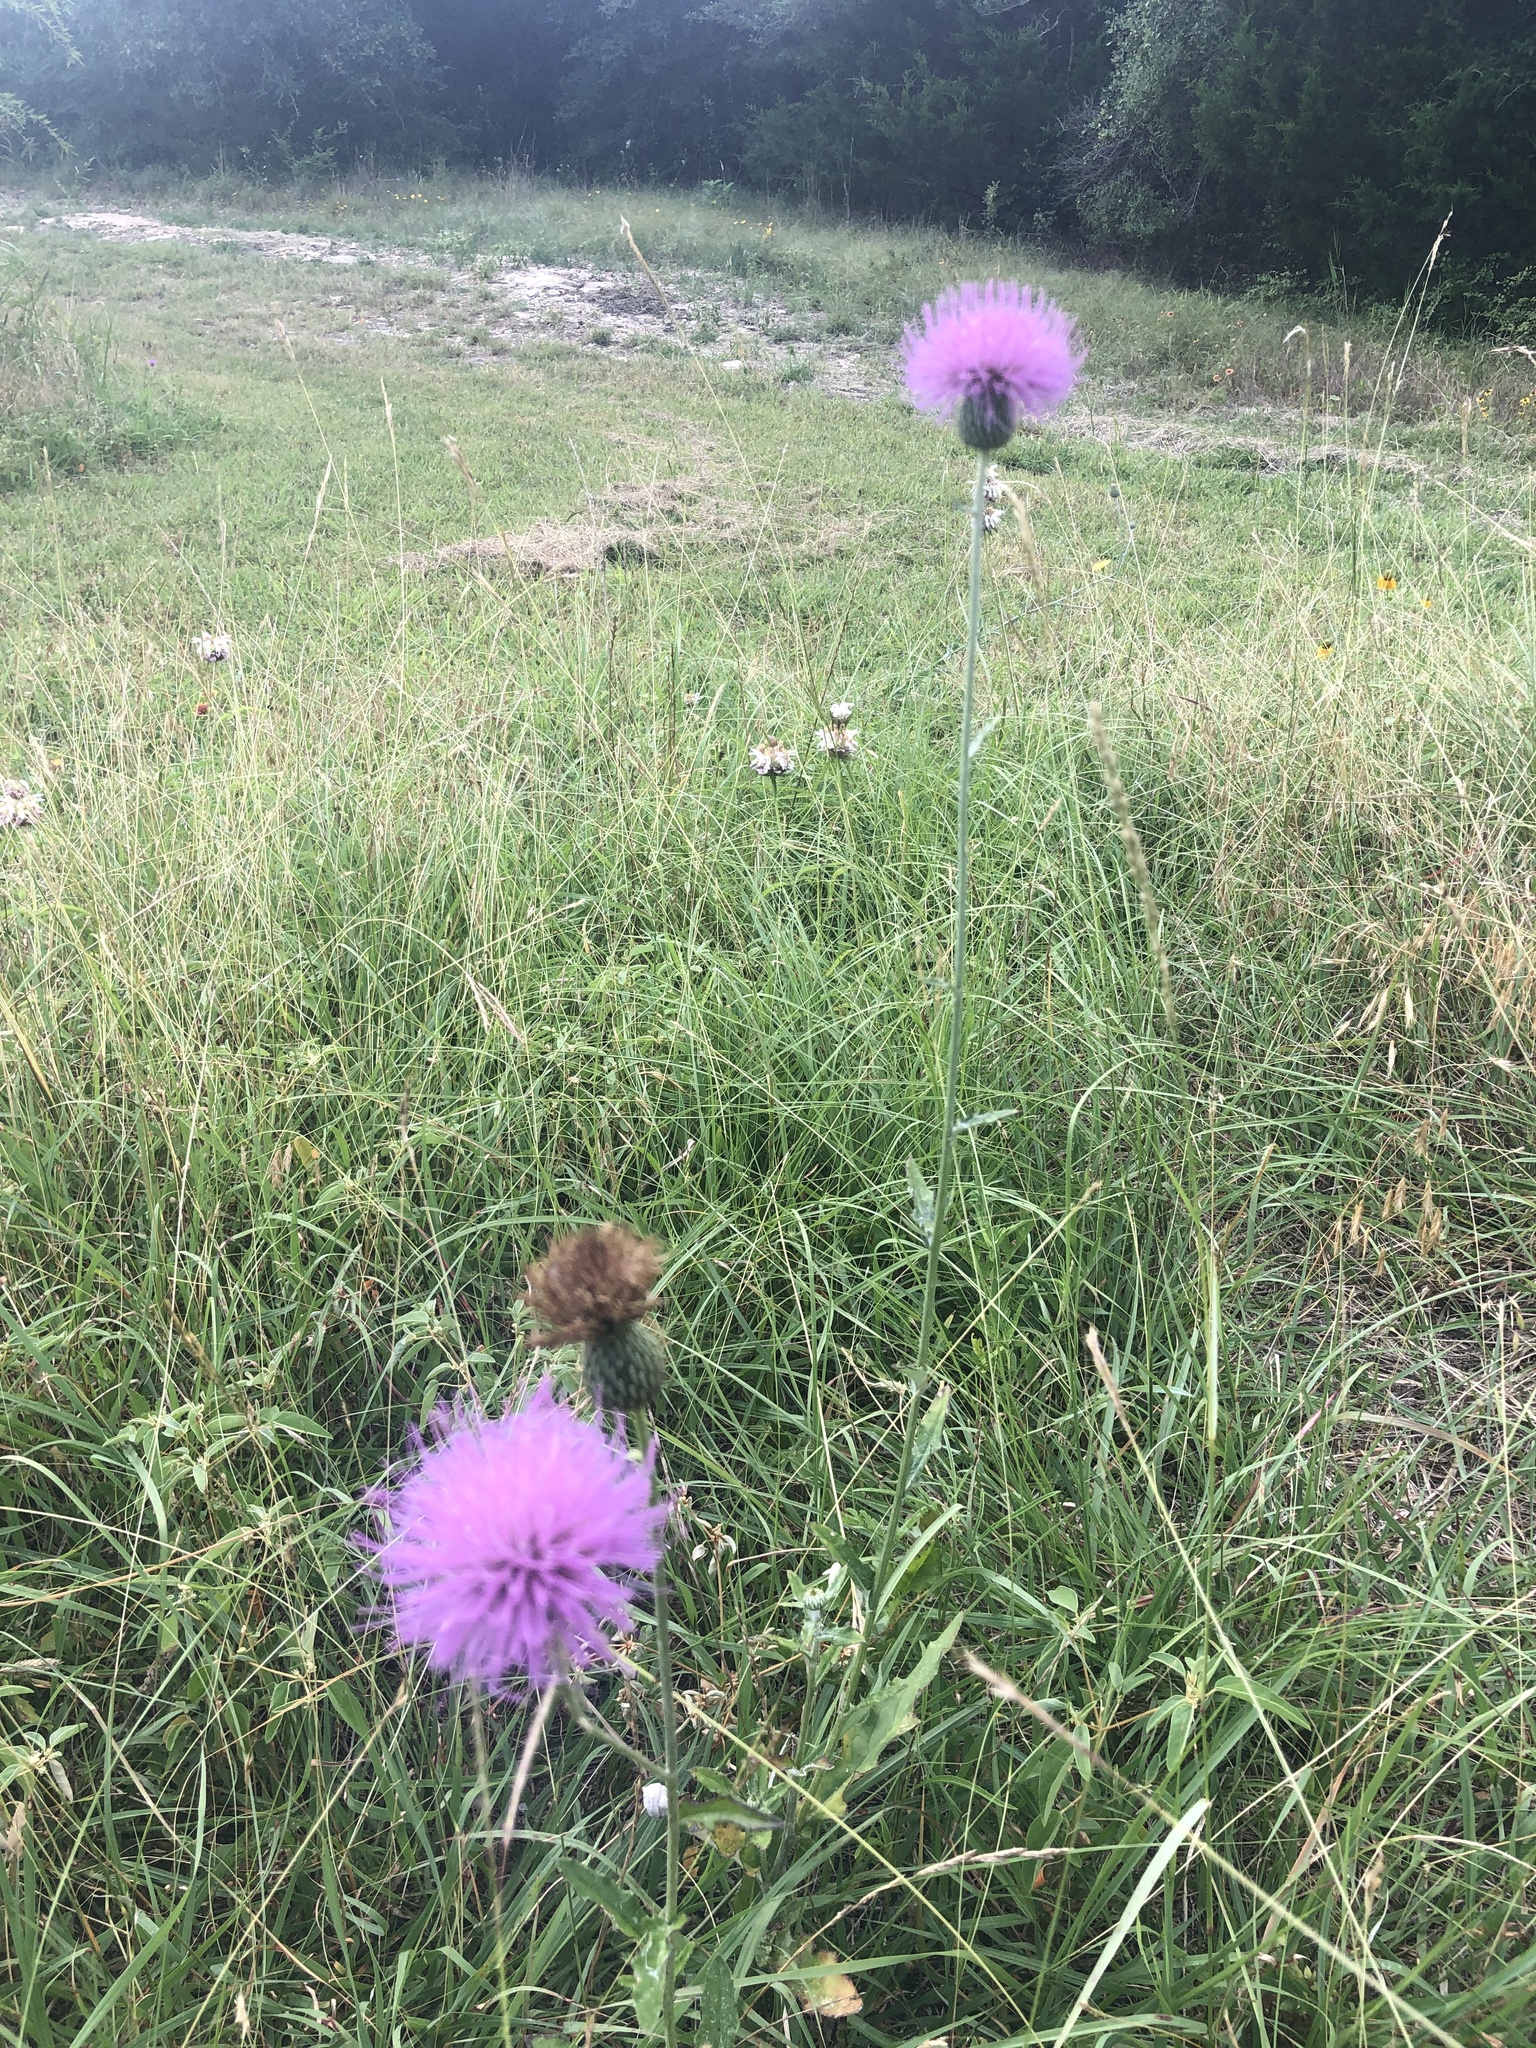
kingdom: Plantae
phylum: Tracheophyta
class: Magnoliopsida
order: Asterales
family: Asteraceae
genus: Cirsium
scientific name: Cirsium texanum
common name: Texas purple thistle
